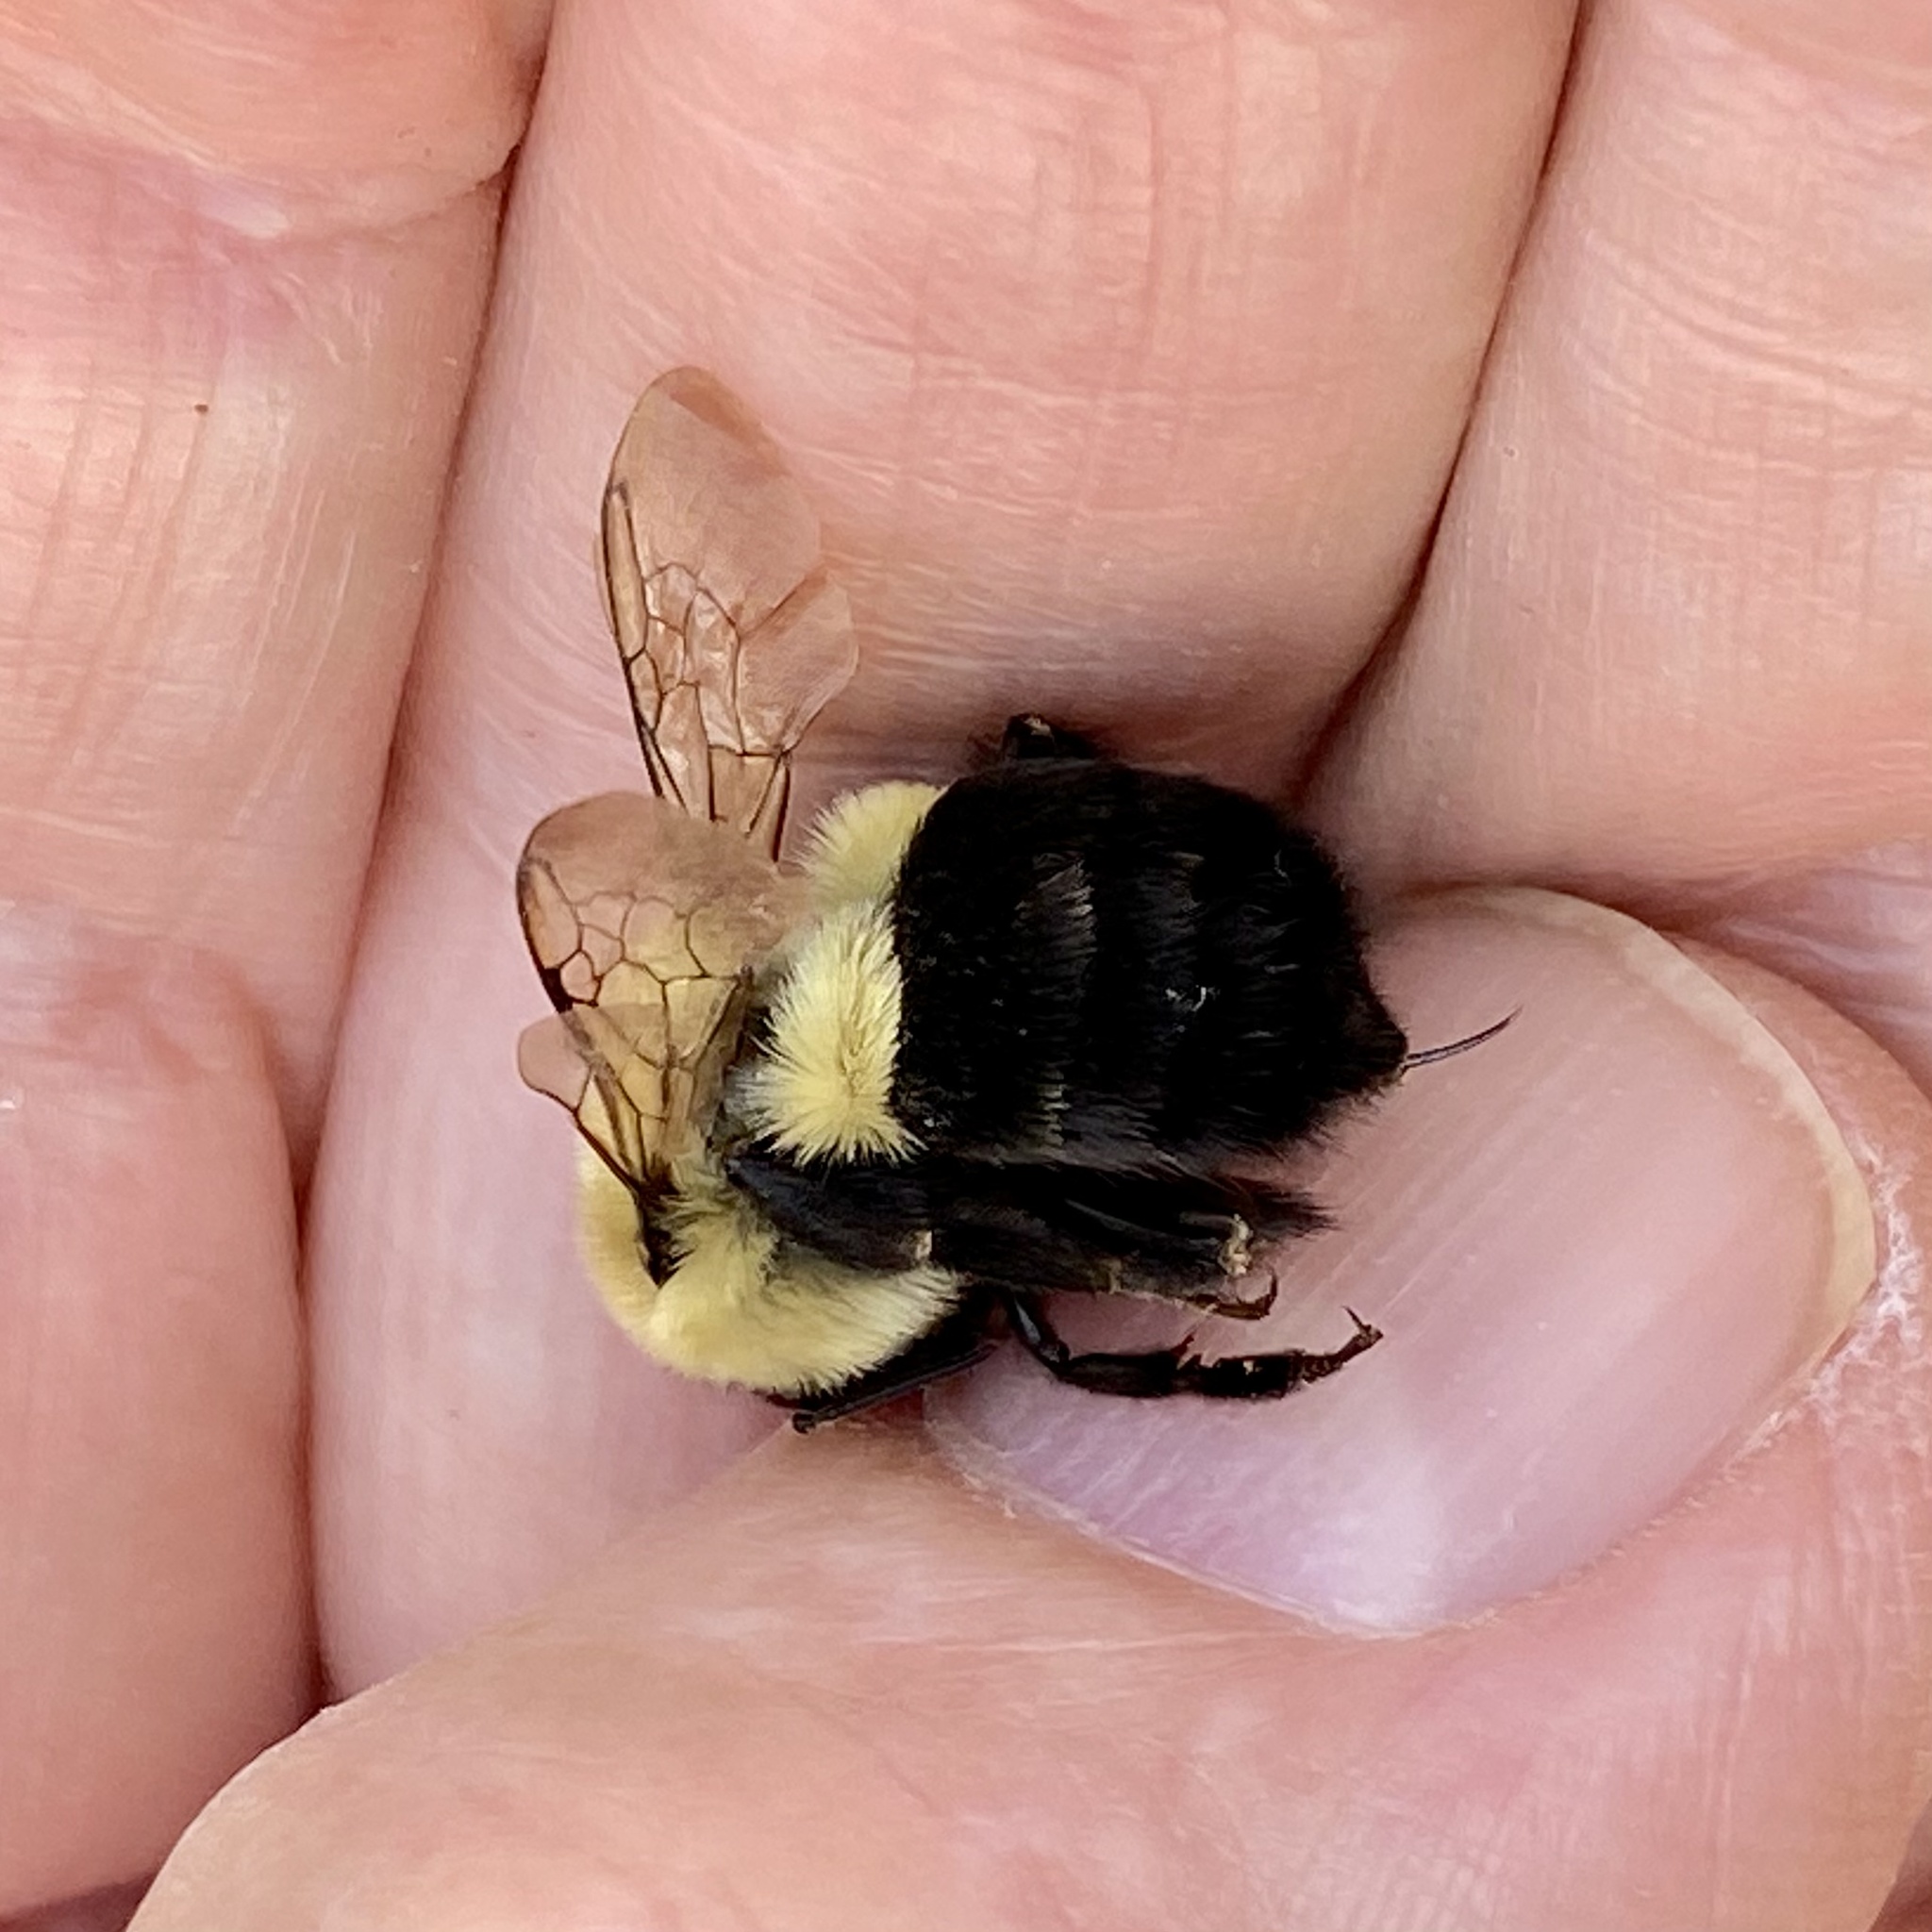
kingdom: Animalia
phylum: Arthropoda
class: Insecta
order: Hymenoptera
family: Apidae
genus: Bombus
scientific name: Bombus impatiens
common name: Common eastern bumble bee
